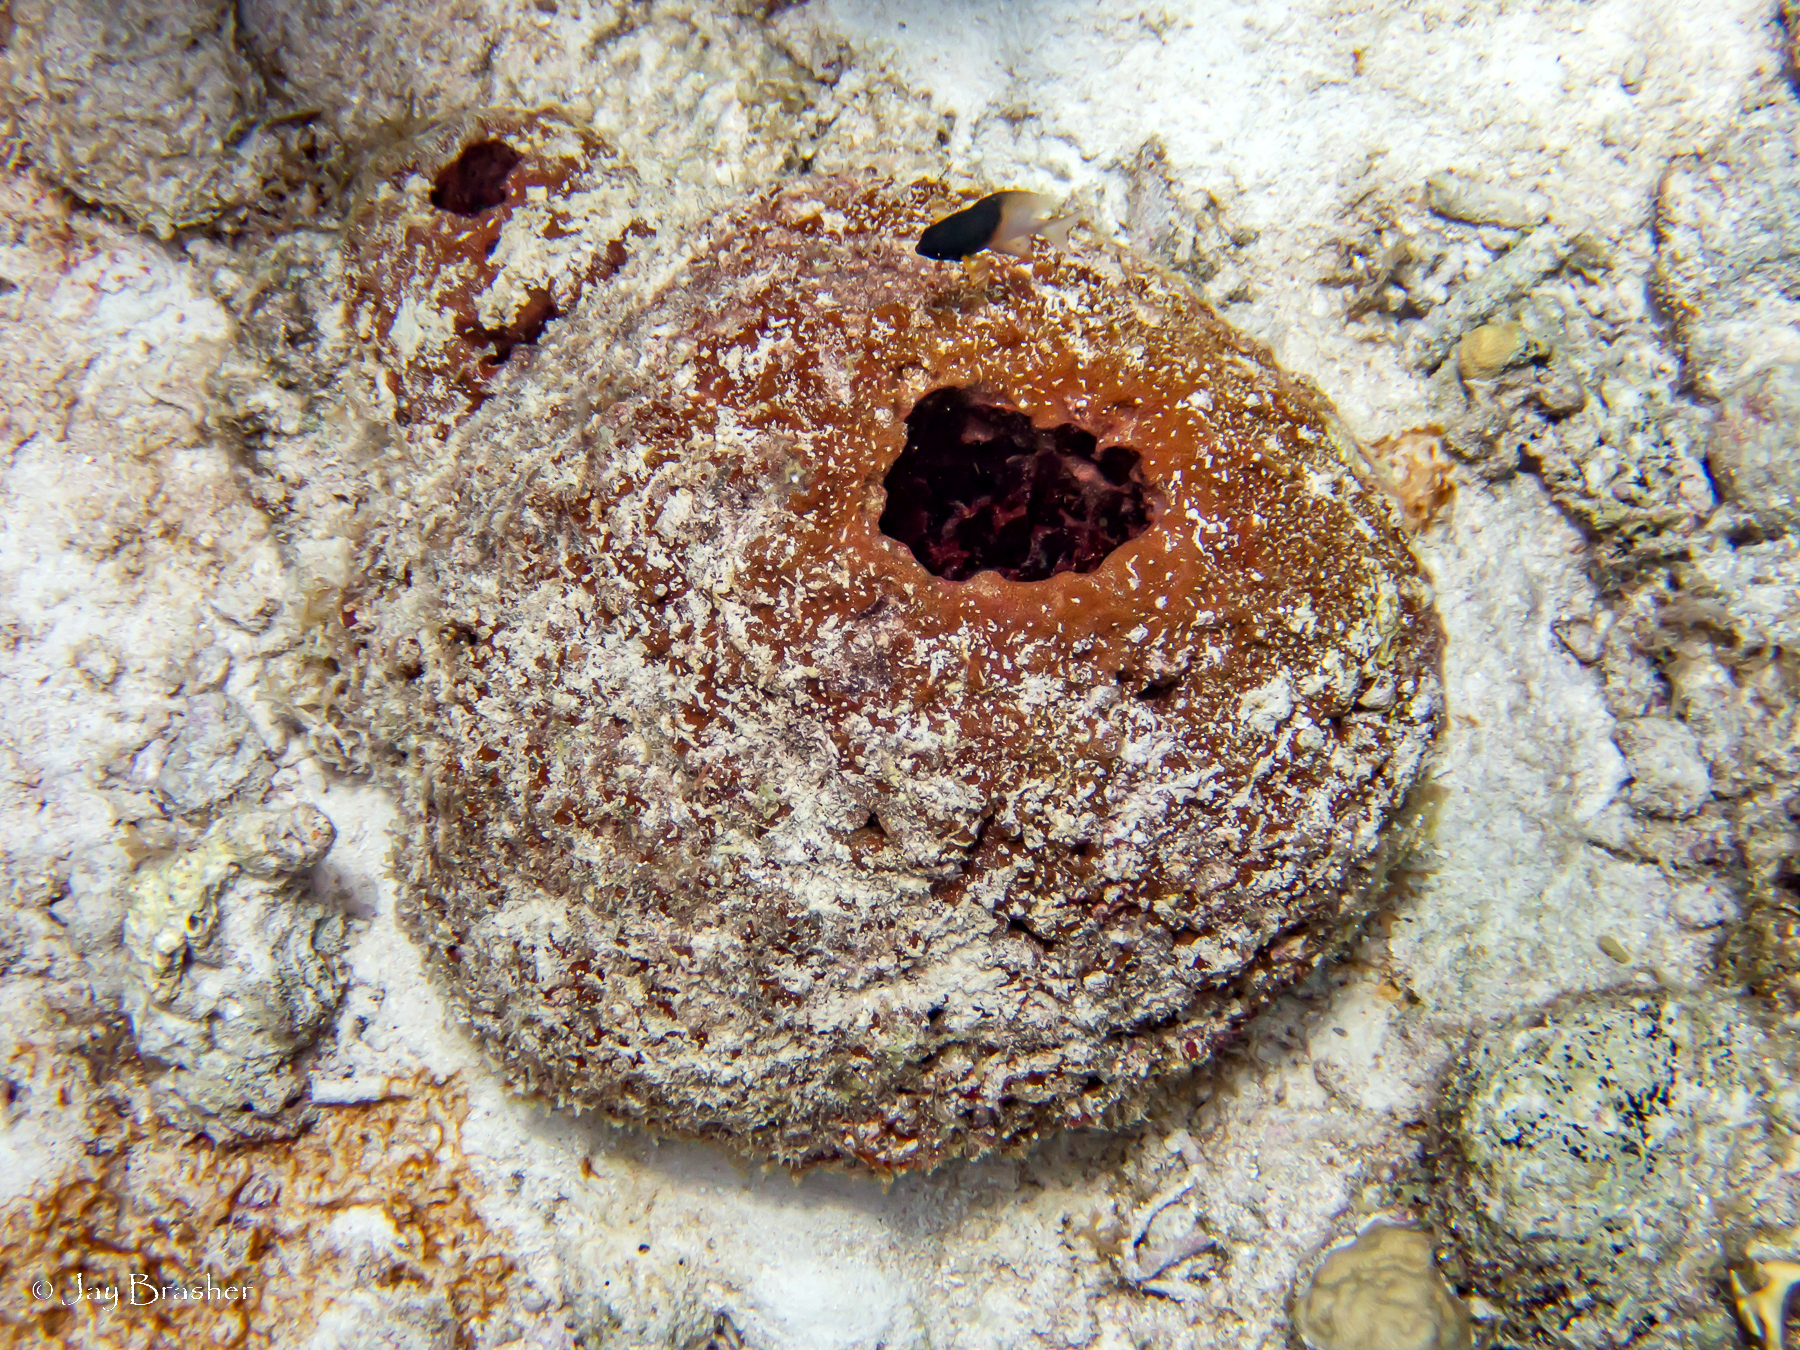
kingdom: Animalia
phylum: Porifera
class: Demospongiae
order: Biemnida
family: Biemnidae
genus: Neofibularia
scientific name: Neofibularia nolitangere
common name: Do-not-touch-me sponge
